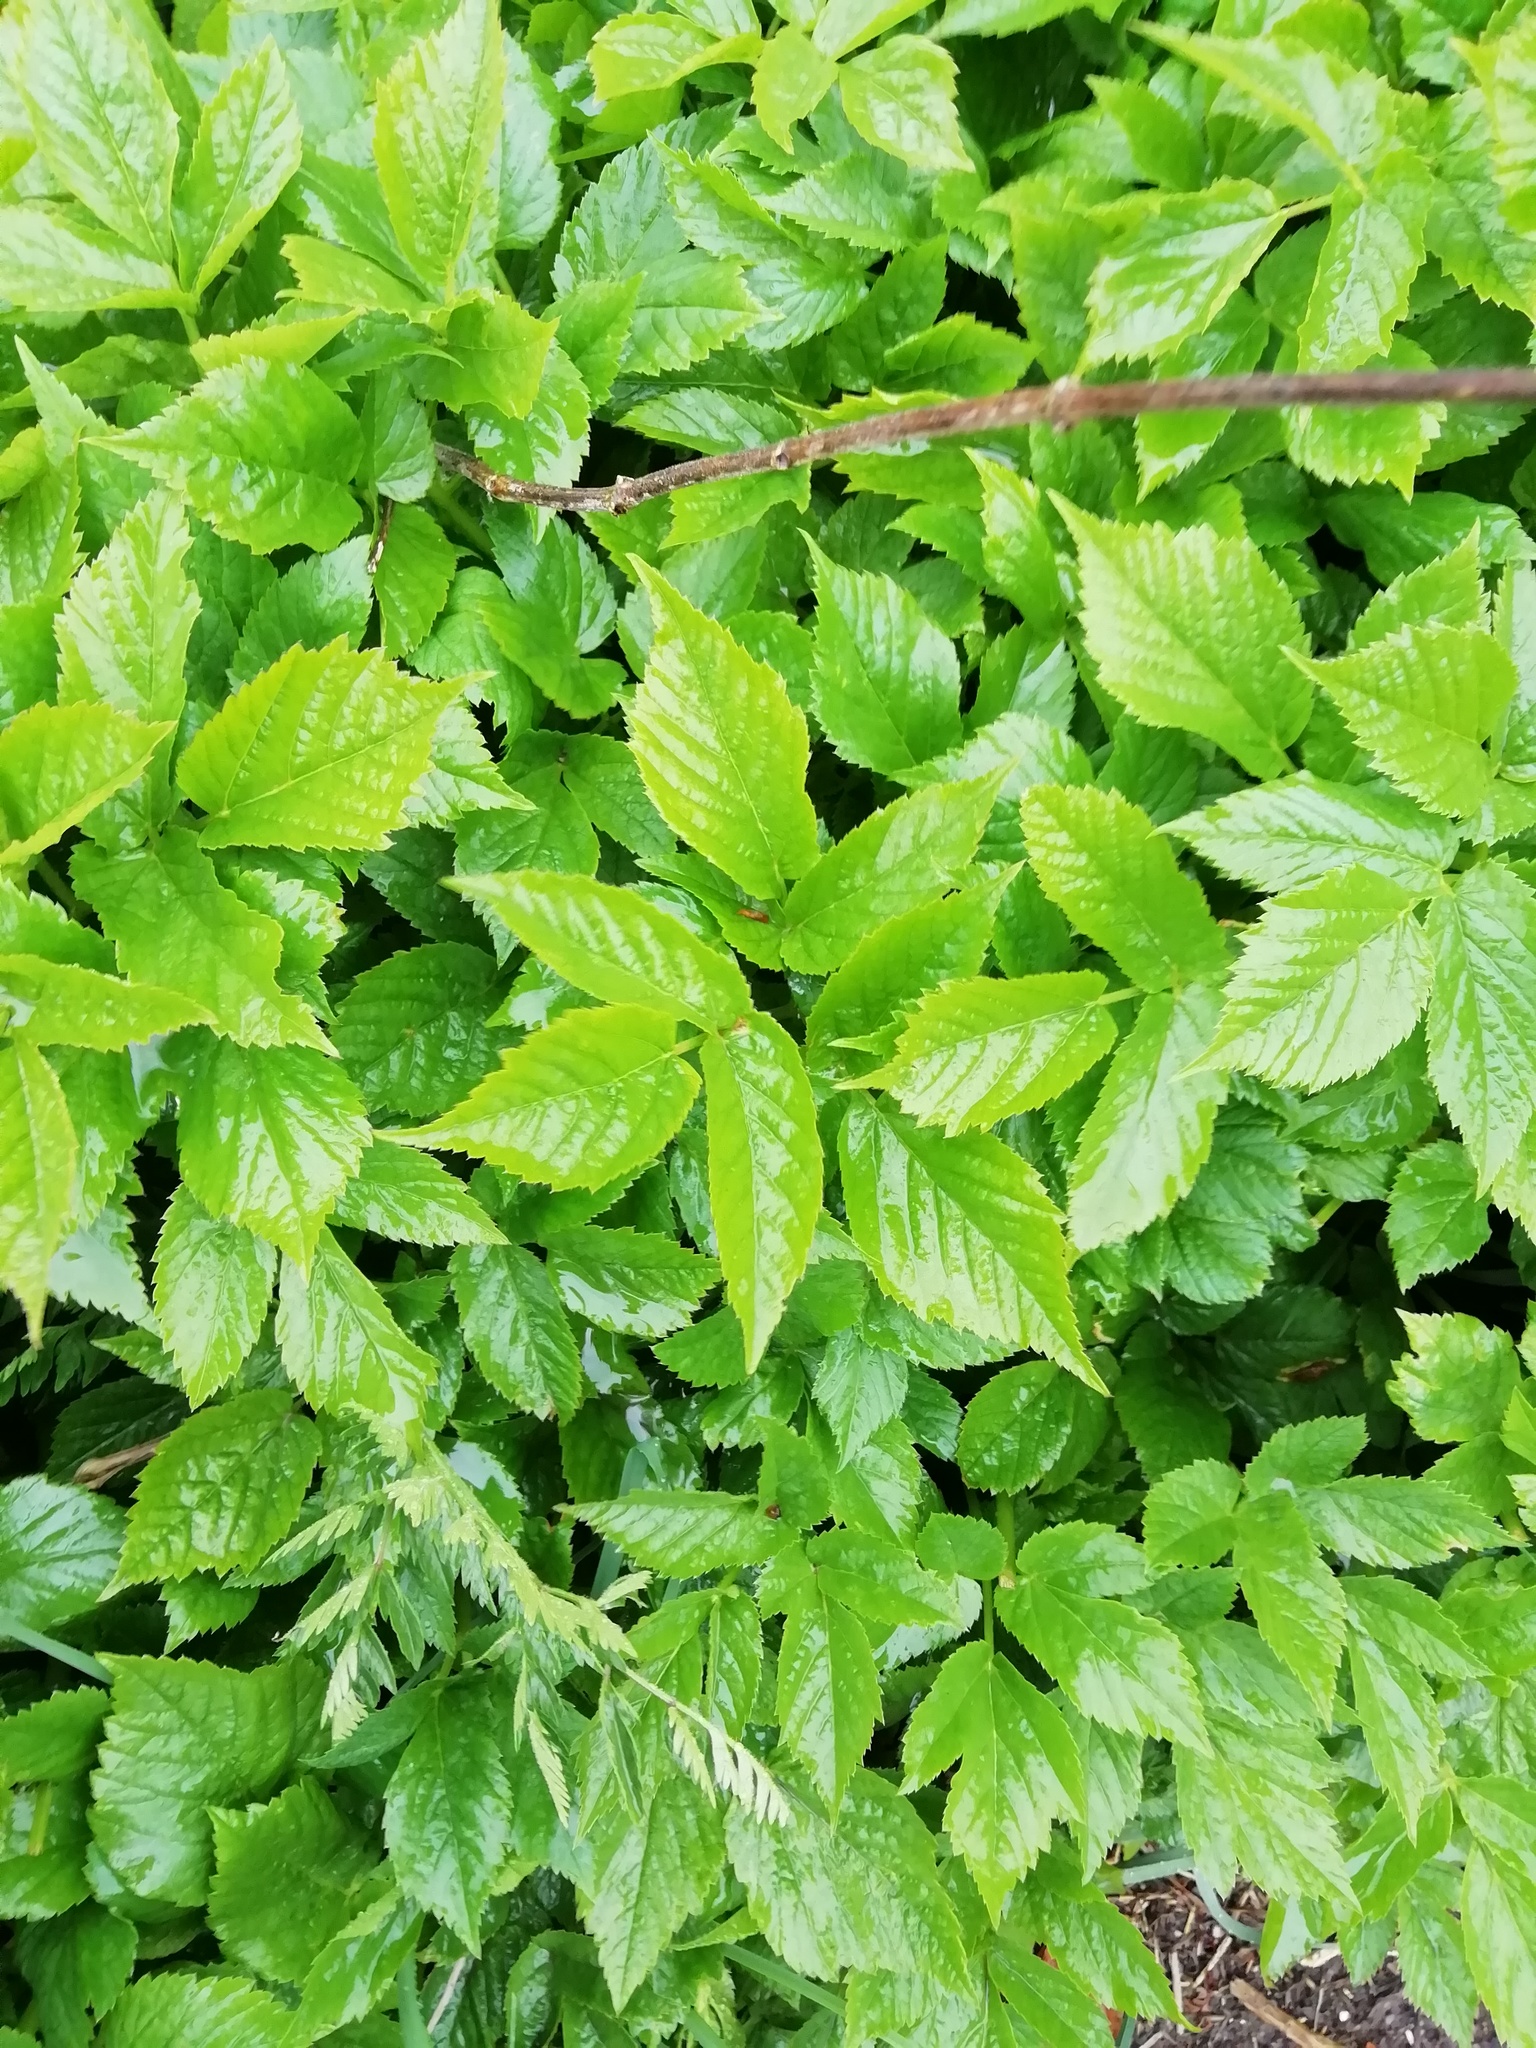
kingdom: Plantae
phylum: Tracheophyta
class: Magnoliopsida
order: Apiales
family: Apiaceae
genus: Aegopodium
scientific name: Aegopodium podagraria
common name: Ground-elder
